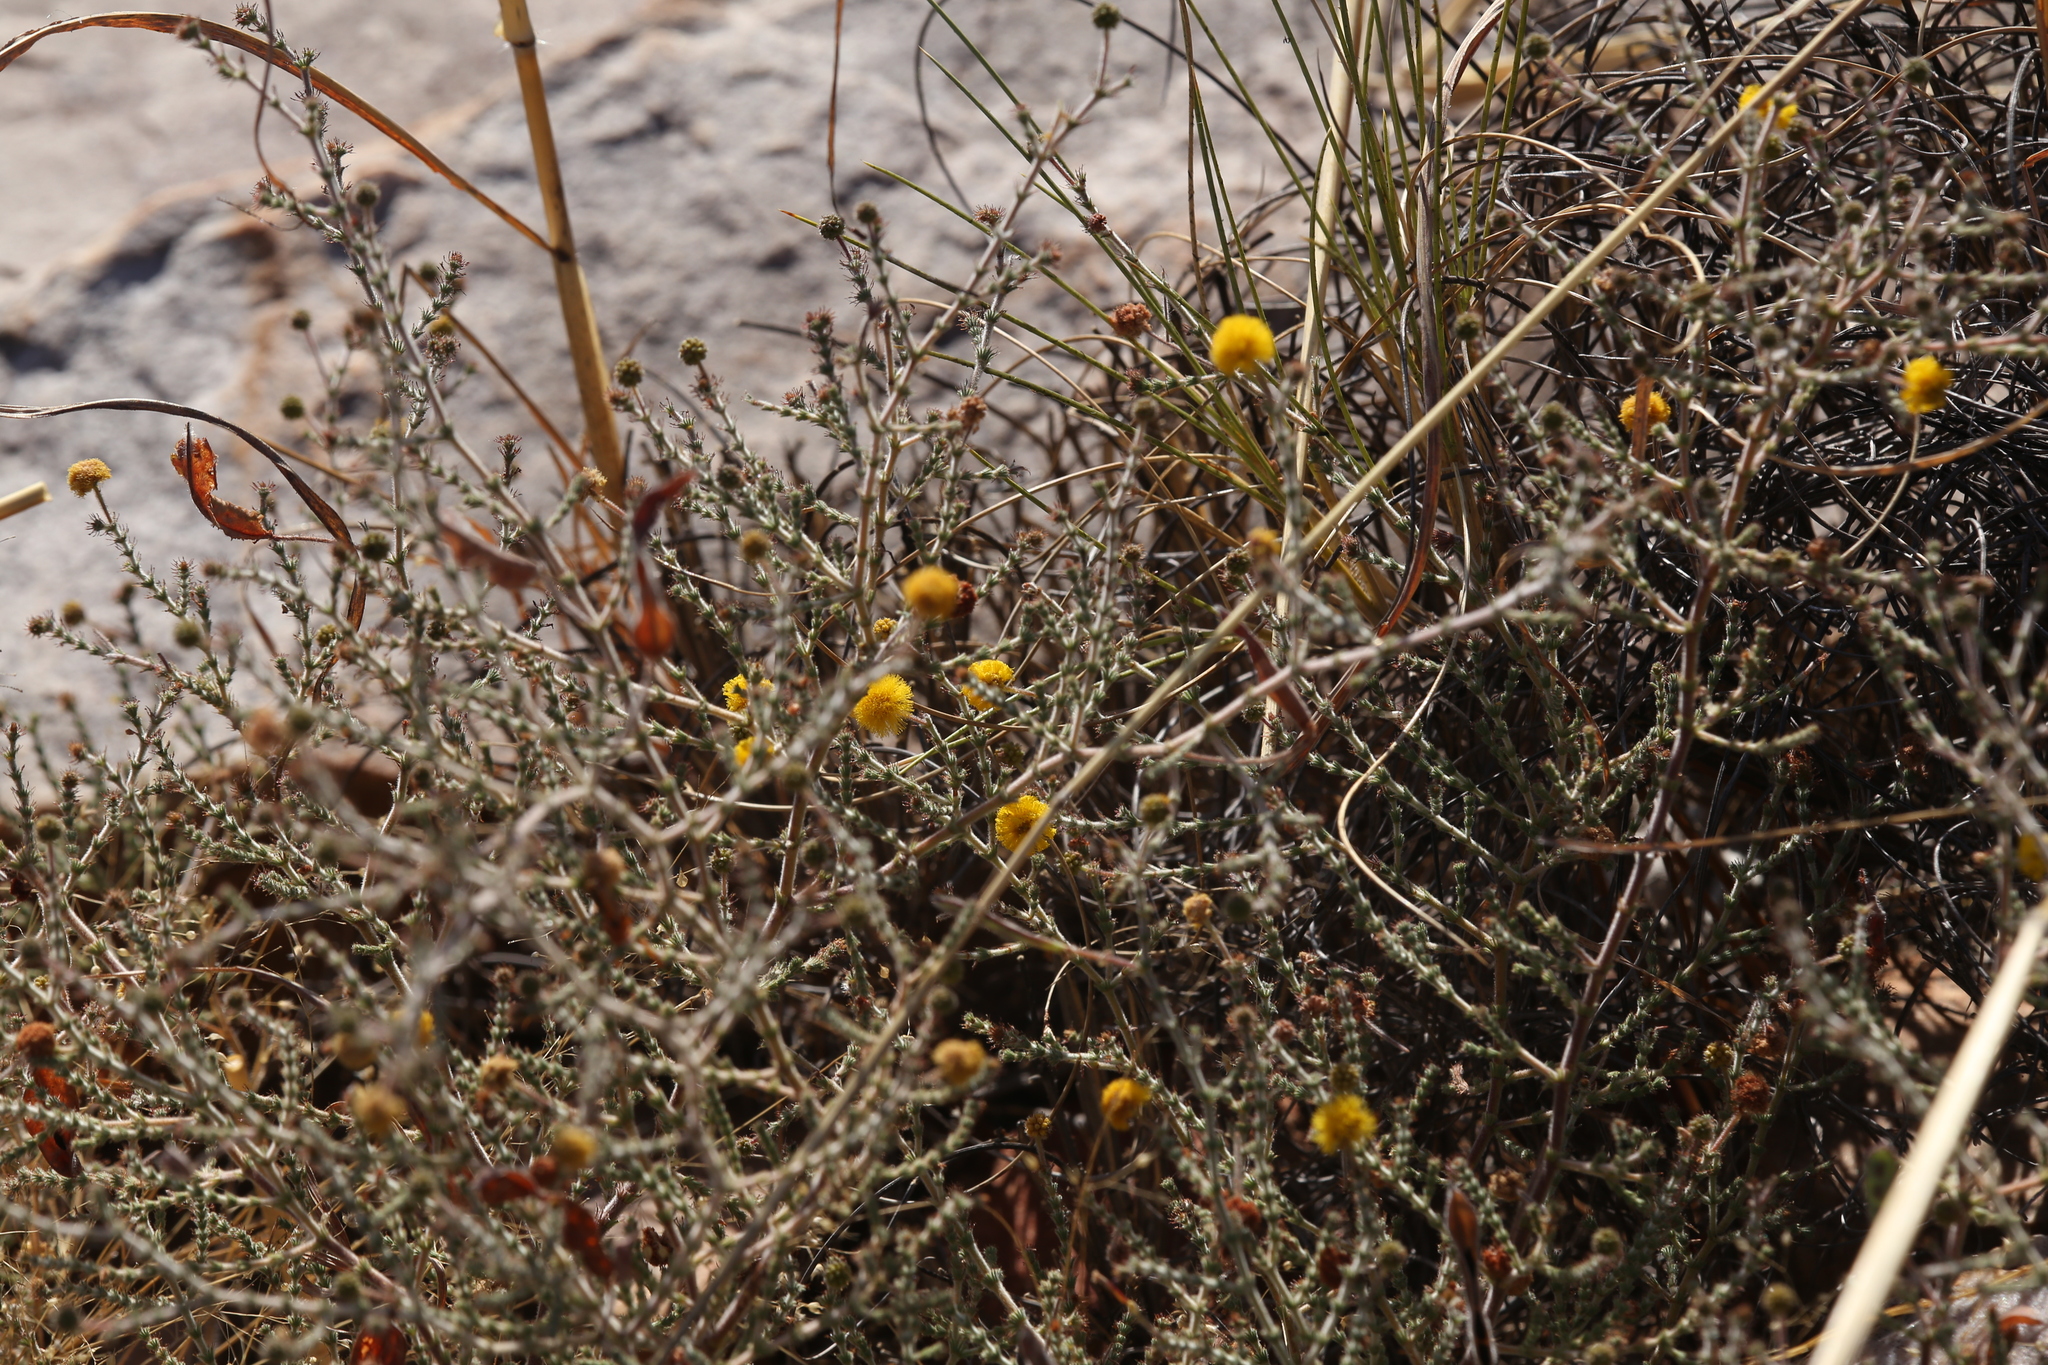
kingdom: Plantae
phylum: Tracheophyta
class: Magnoliopsida
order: Fabales
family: Fabaceae
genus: Acacia
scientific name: Acacia lycopodiifolia
